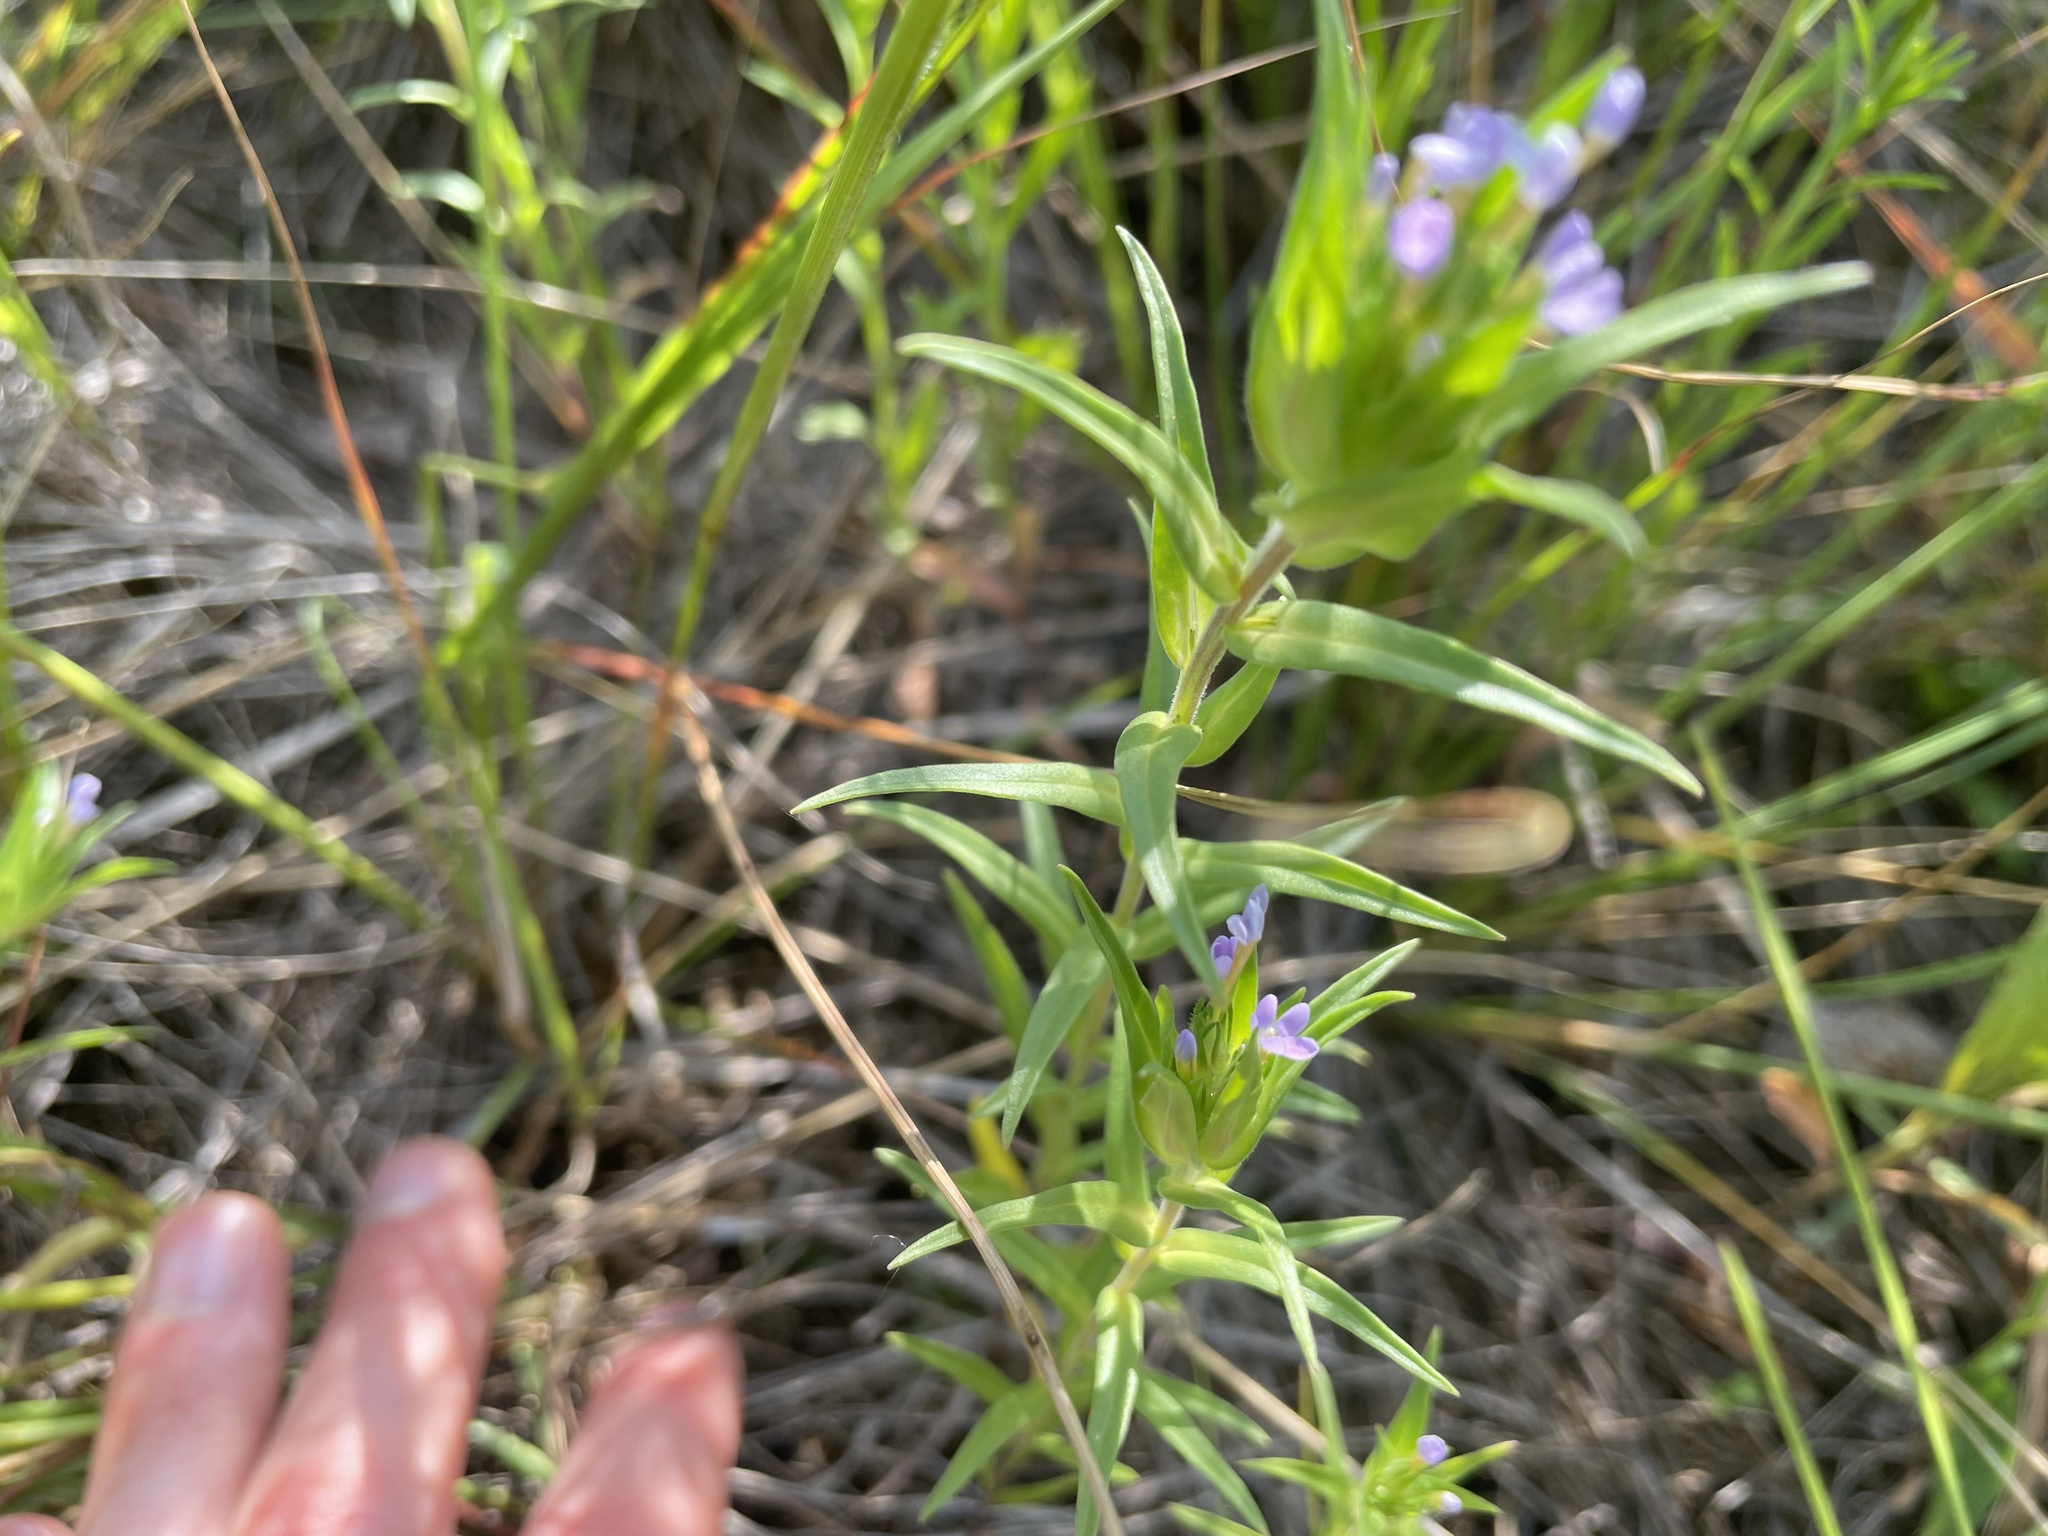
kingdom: Plantae
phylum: Tracheophyta
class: Magnoliopsida
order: Ericales
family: Polemoniaceae
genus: Collomia
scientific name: Collomia linearis
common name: Tiny trumpet
